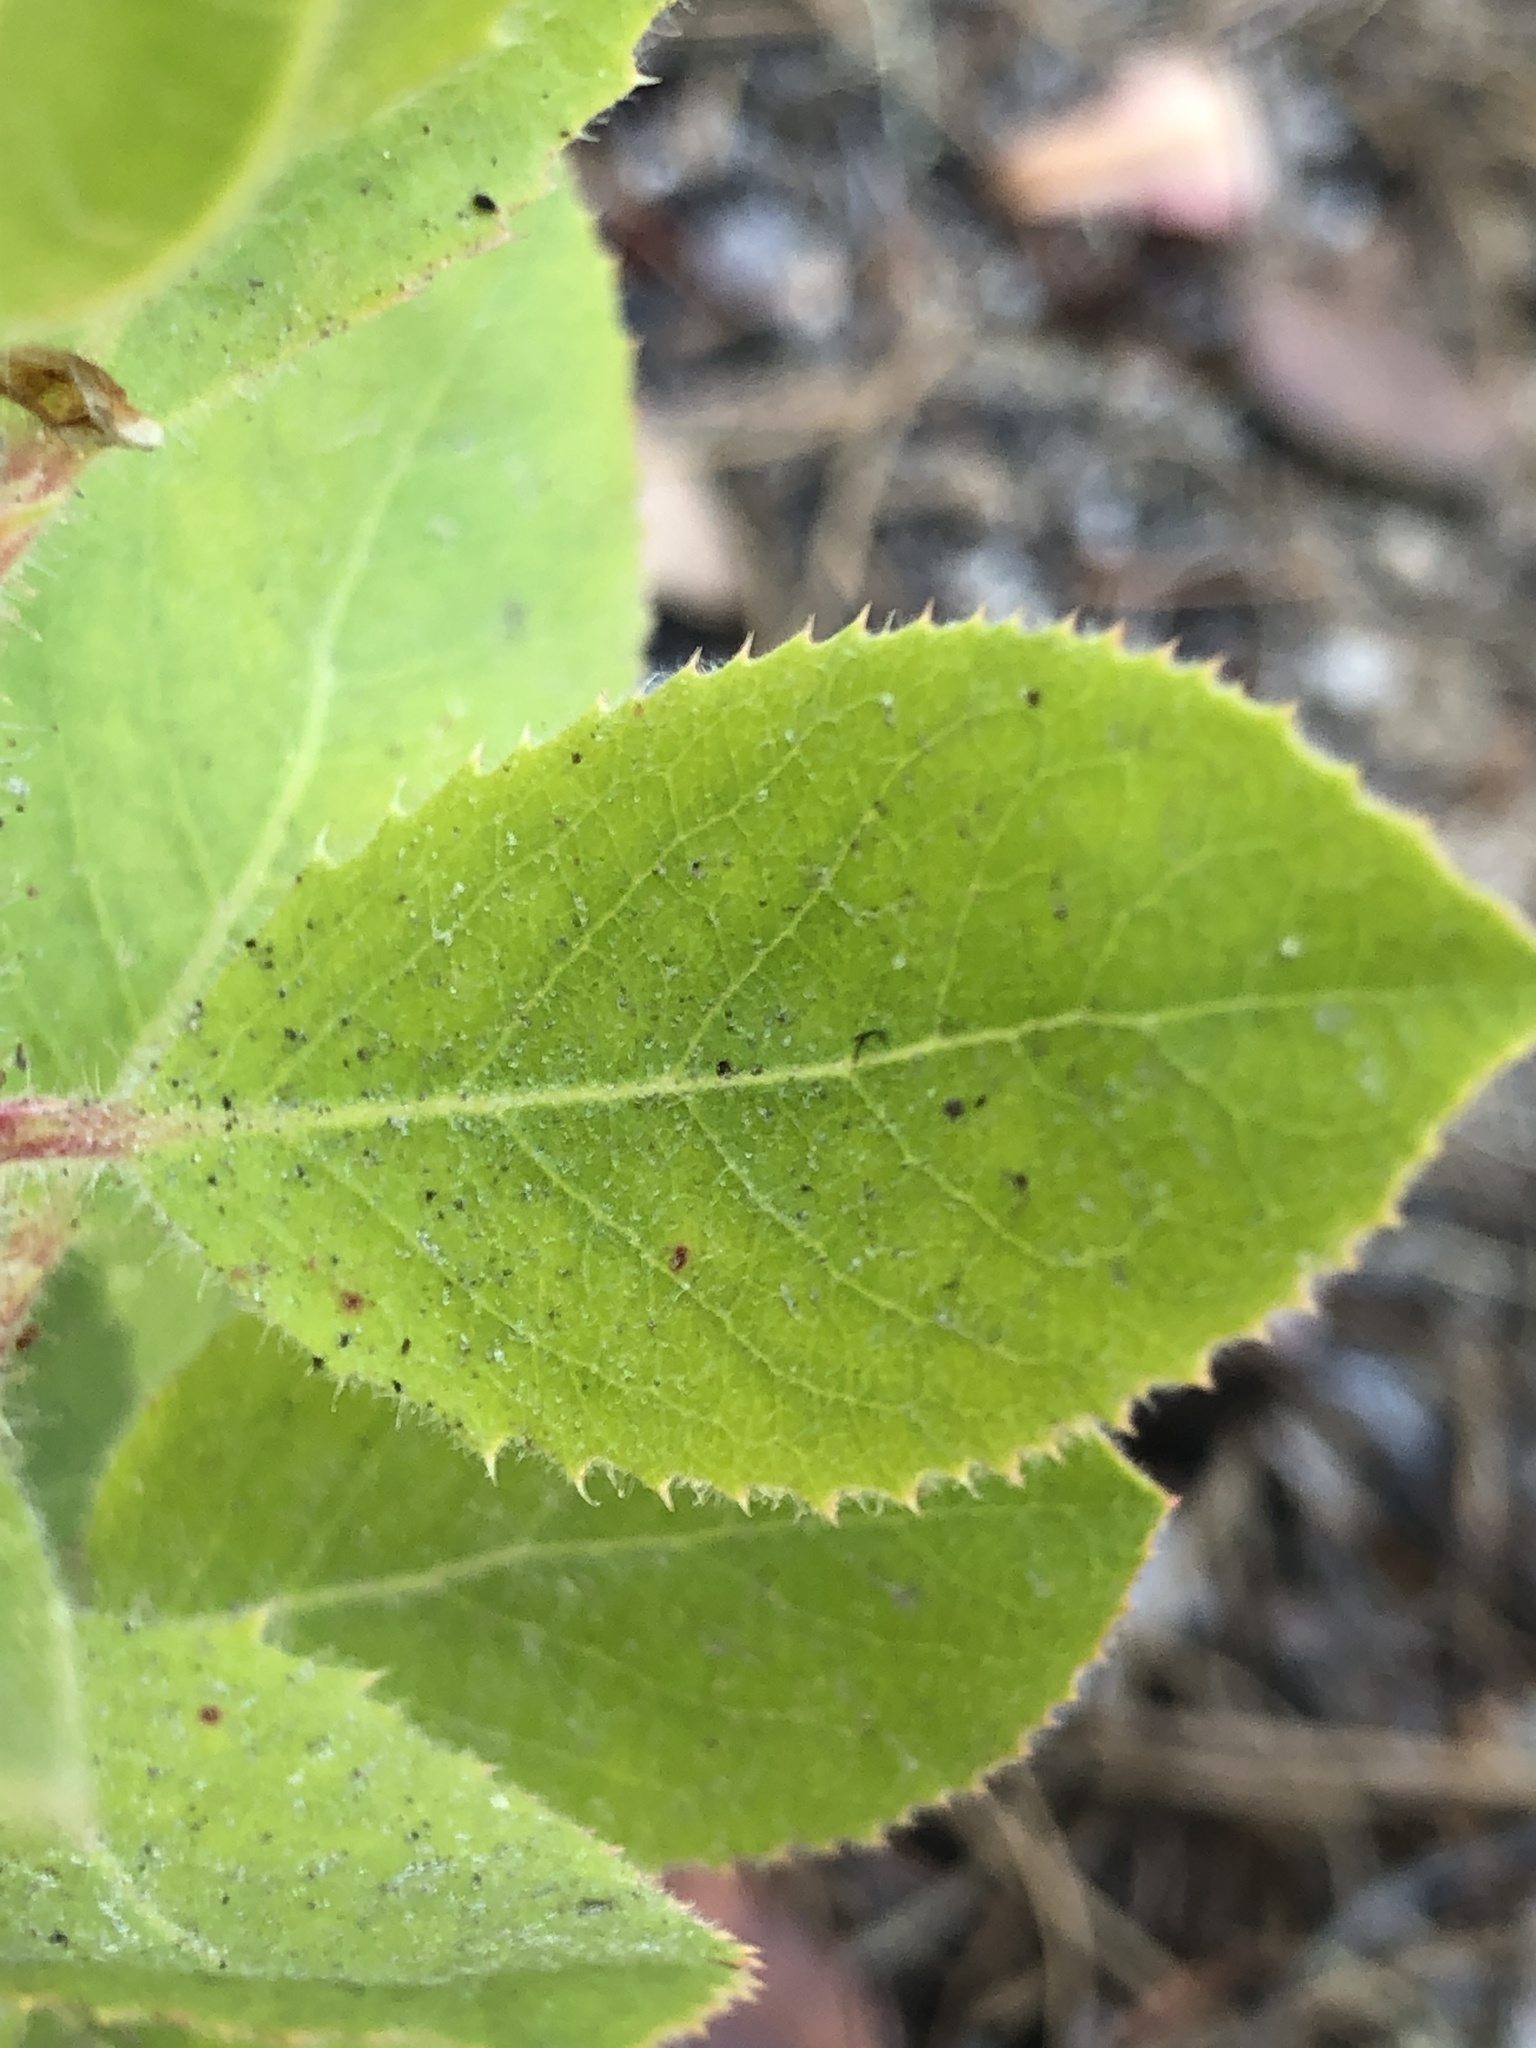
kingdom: Plantae
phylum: Tracheophyta
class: Magnoliopsida
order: Ericales
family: Ericaceae
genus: Arctostaphylos
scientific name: Arctostaphylos virgata
